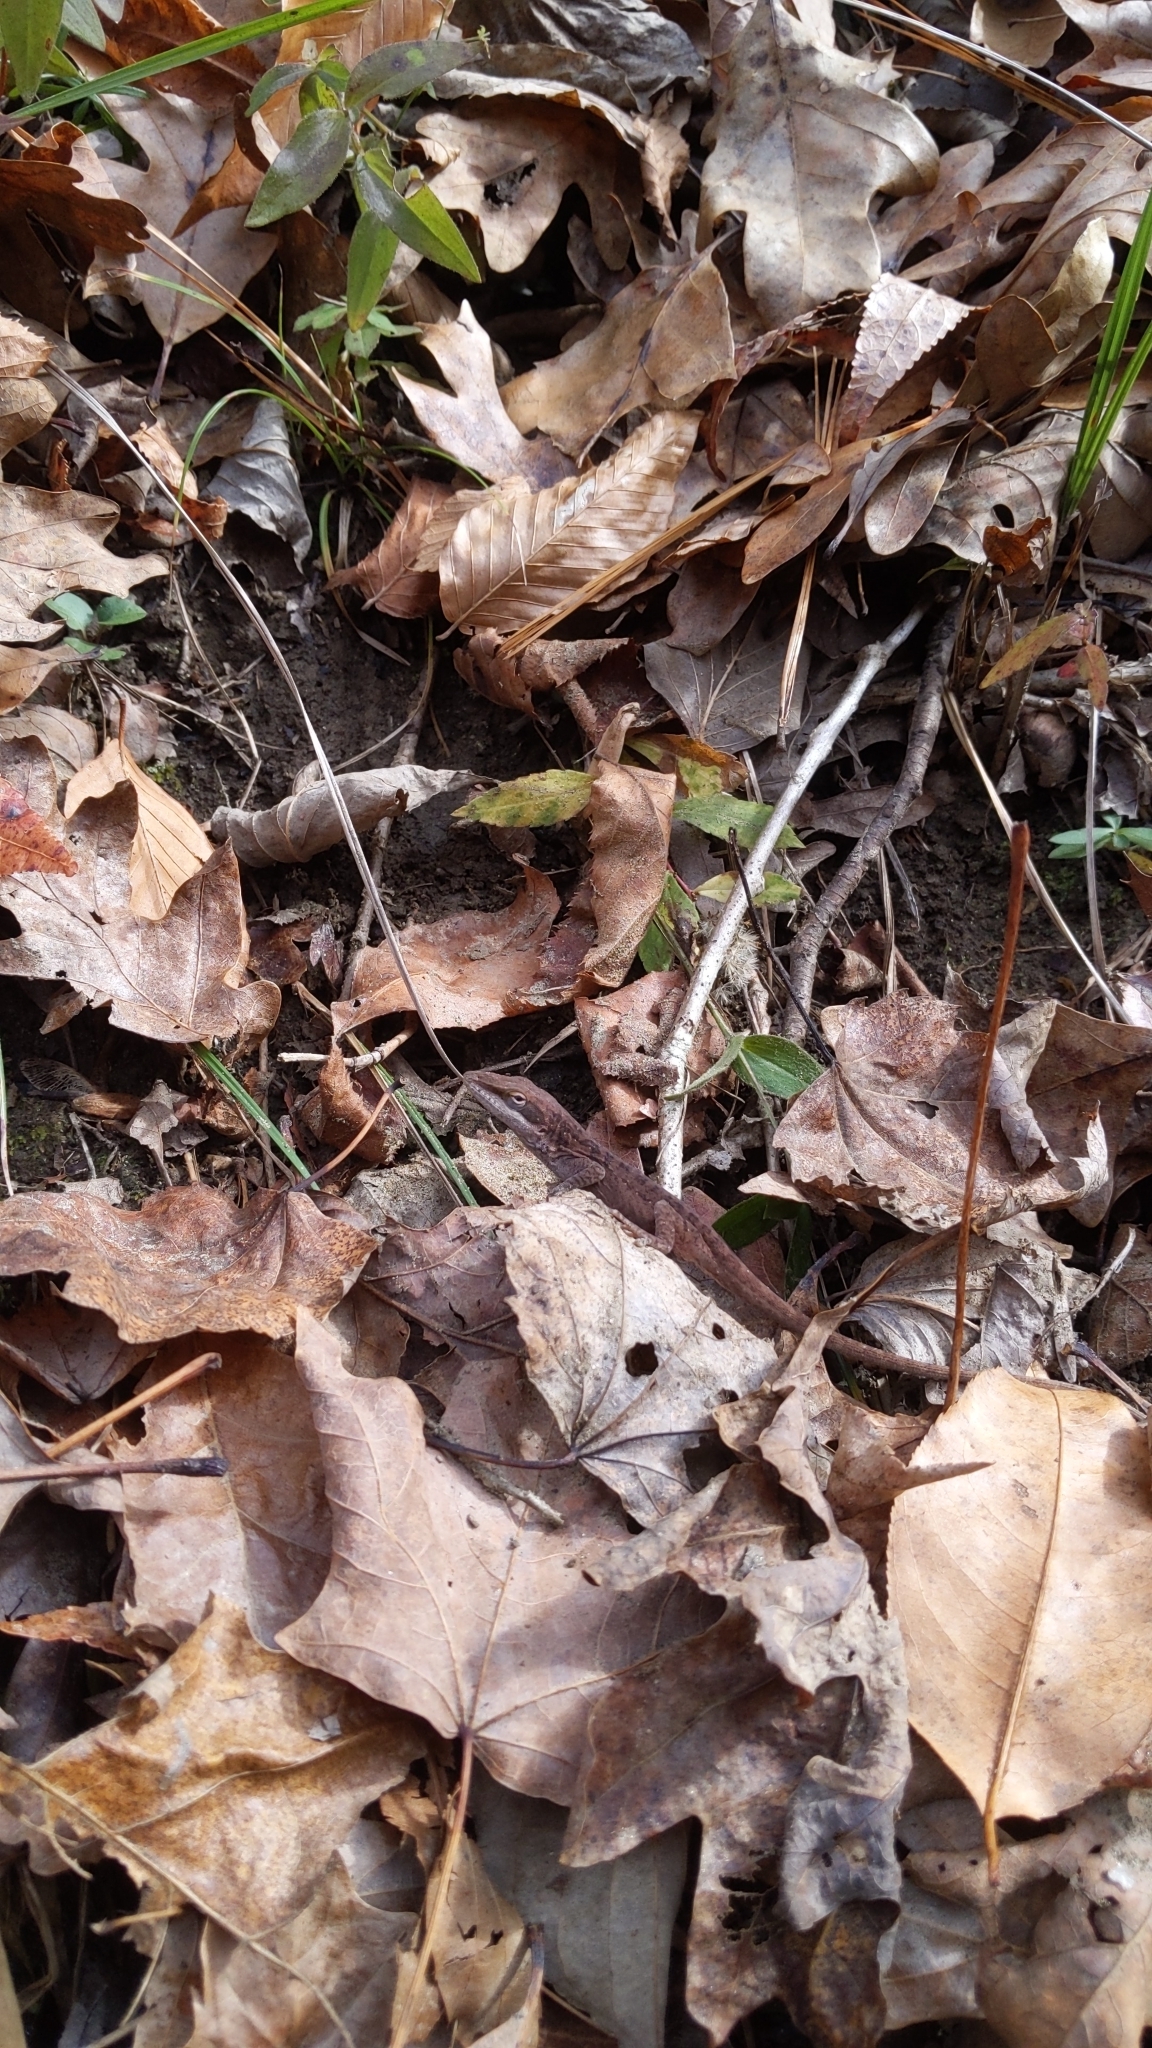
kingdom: Animalia
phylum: Chordata
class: Squamata
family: Dactyloidae
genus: Anolis
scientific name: Anolis carolinensis
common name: Green anole
